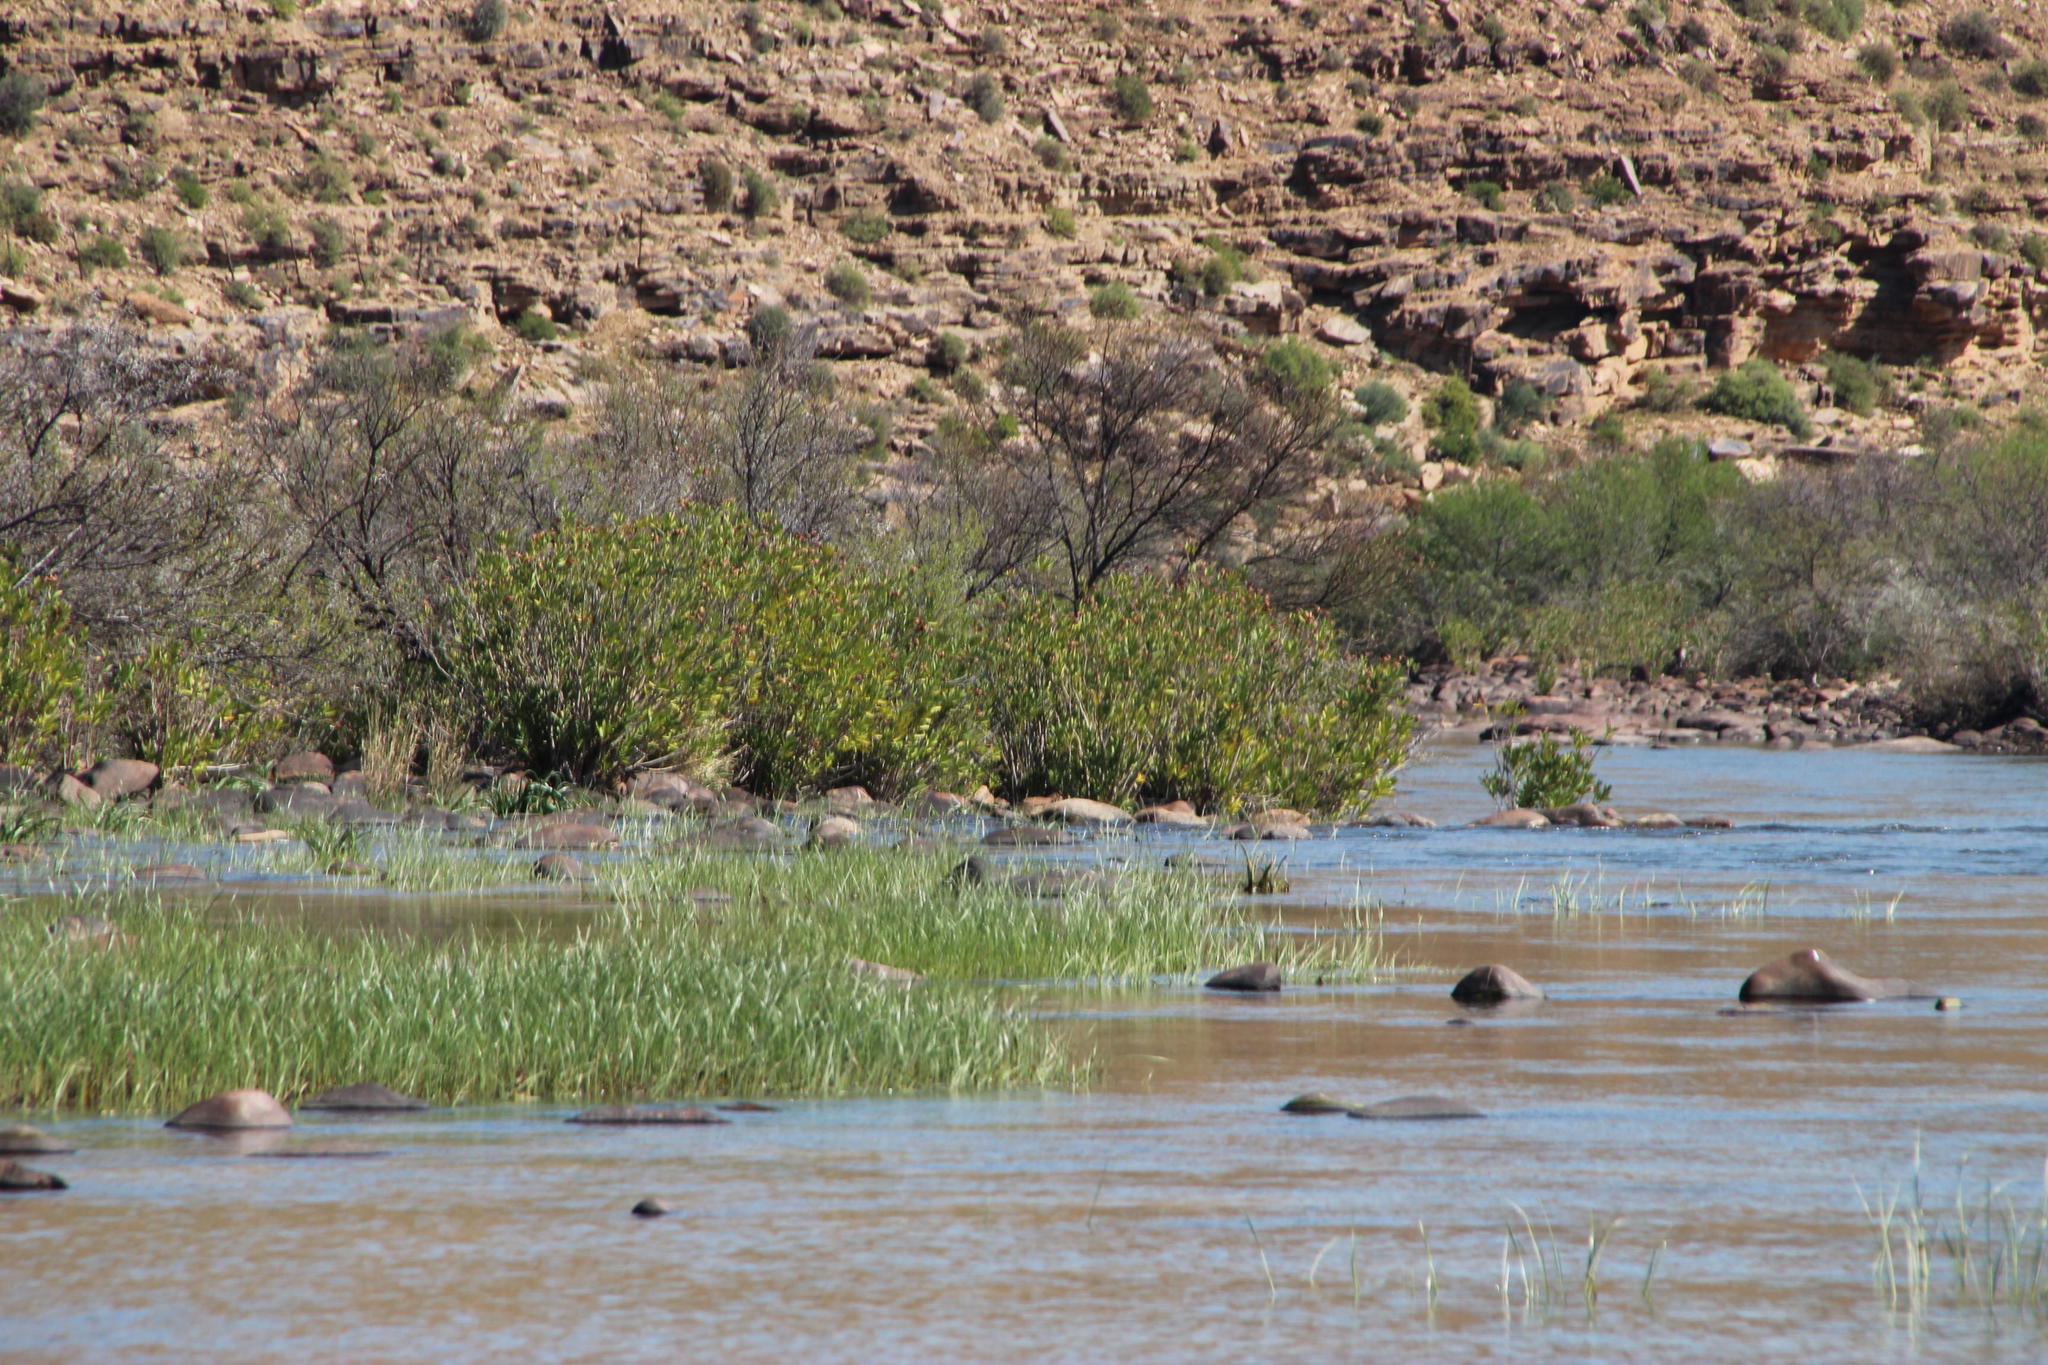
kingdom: Plantae
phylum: Tracheophyta
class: Magnoliopsida
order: Gentianales
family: Apocynaceae
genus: Nerium
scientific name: Nerium oleander
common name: Oleander
